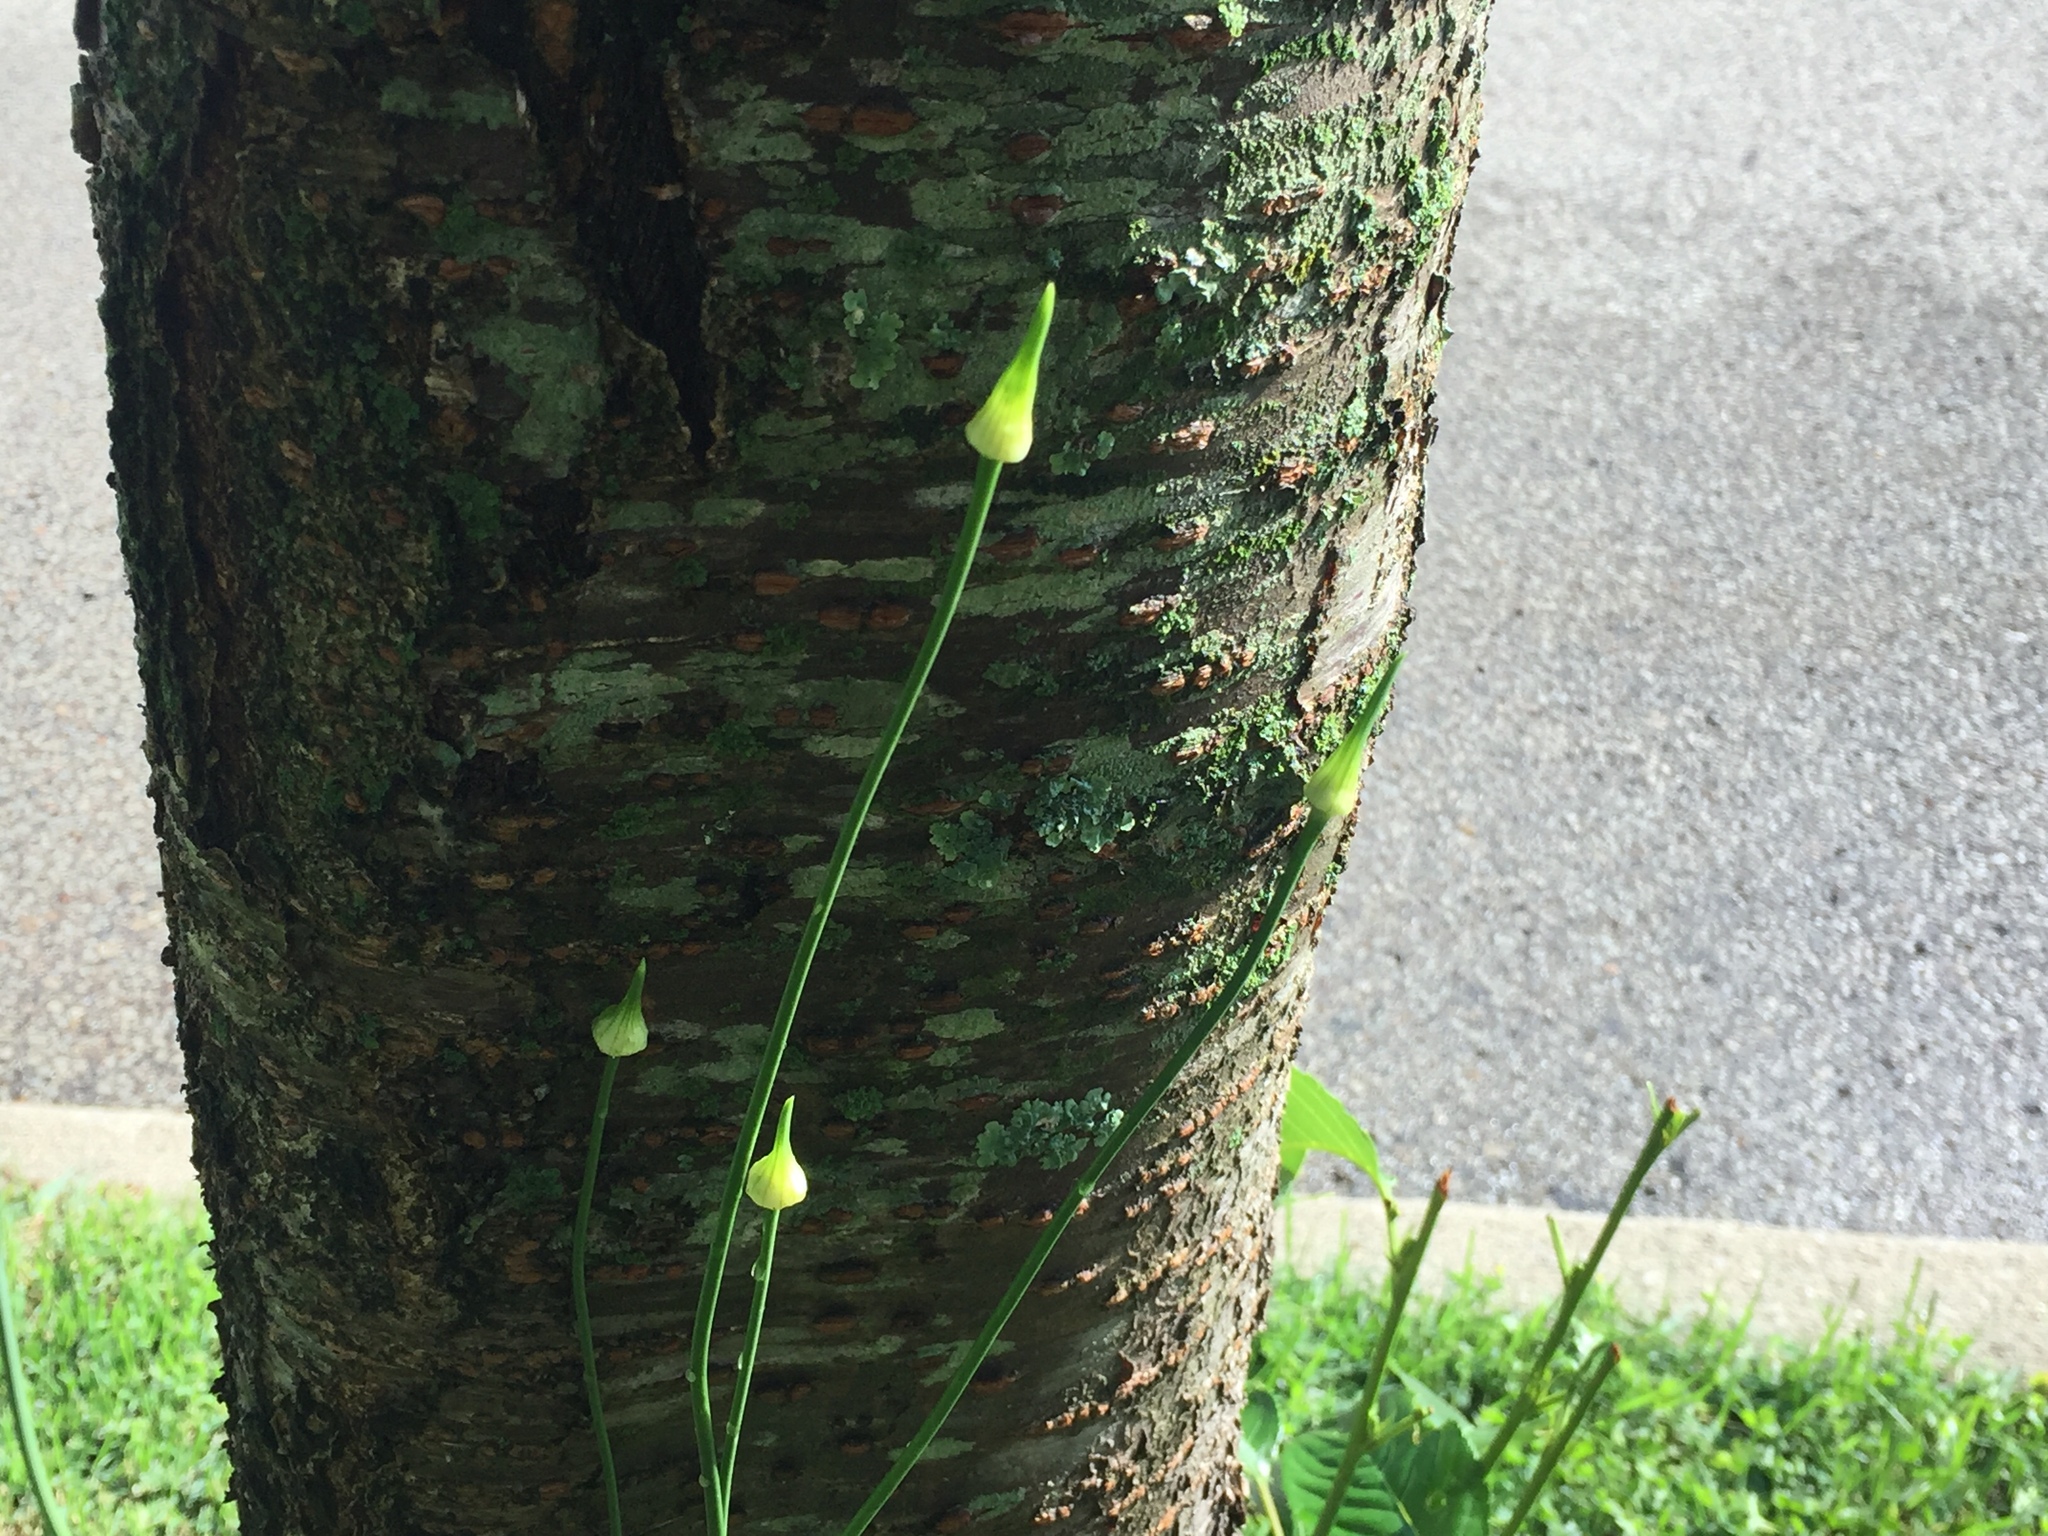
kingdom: Plantae
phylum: Tracheophyta
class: Liliopsida
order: Asparagales
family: Amaryllidaceae
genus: Allium
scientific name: Allium vineale
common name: Crow garlic
